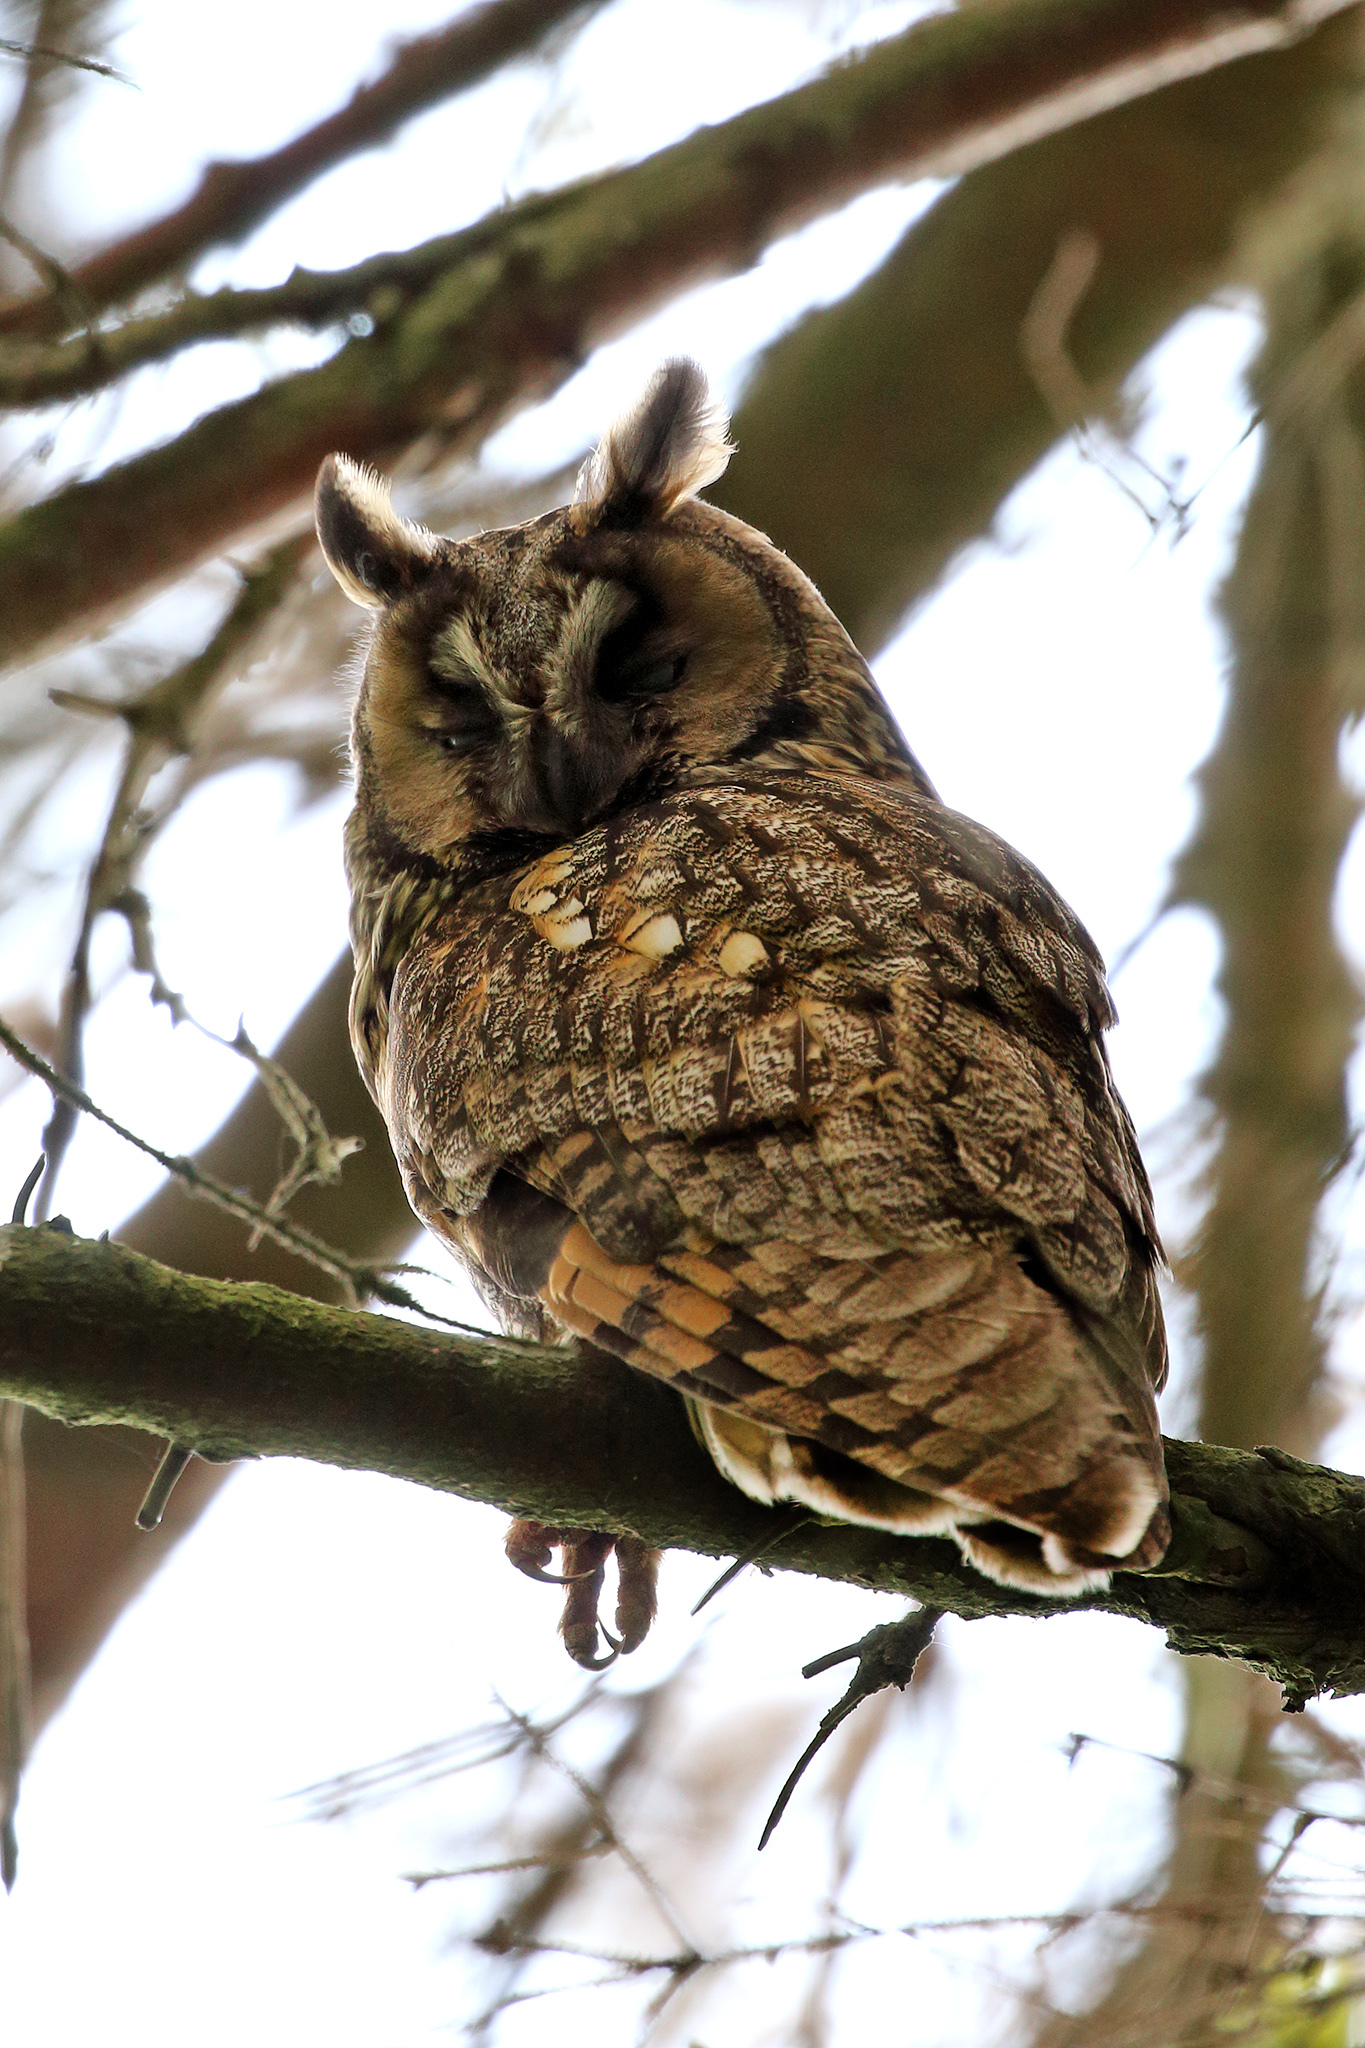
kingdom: Animalia
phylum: Chordata
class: Aves
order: Strigiformes
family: Strigidae
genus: Asio
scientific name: Asio otus
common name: Long-eared owl
